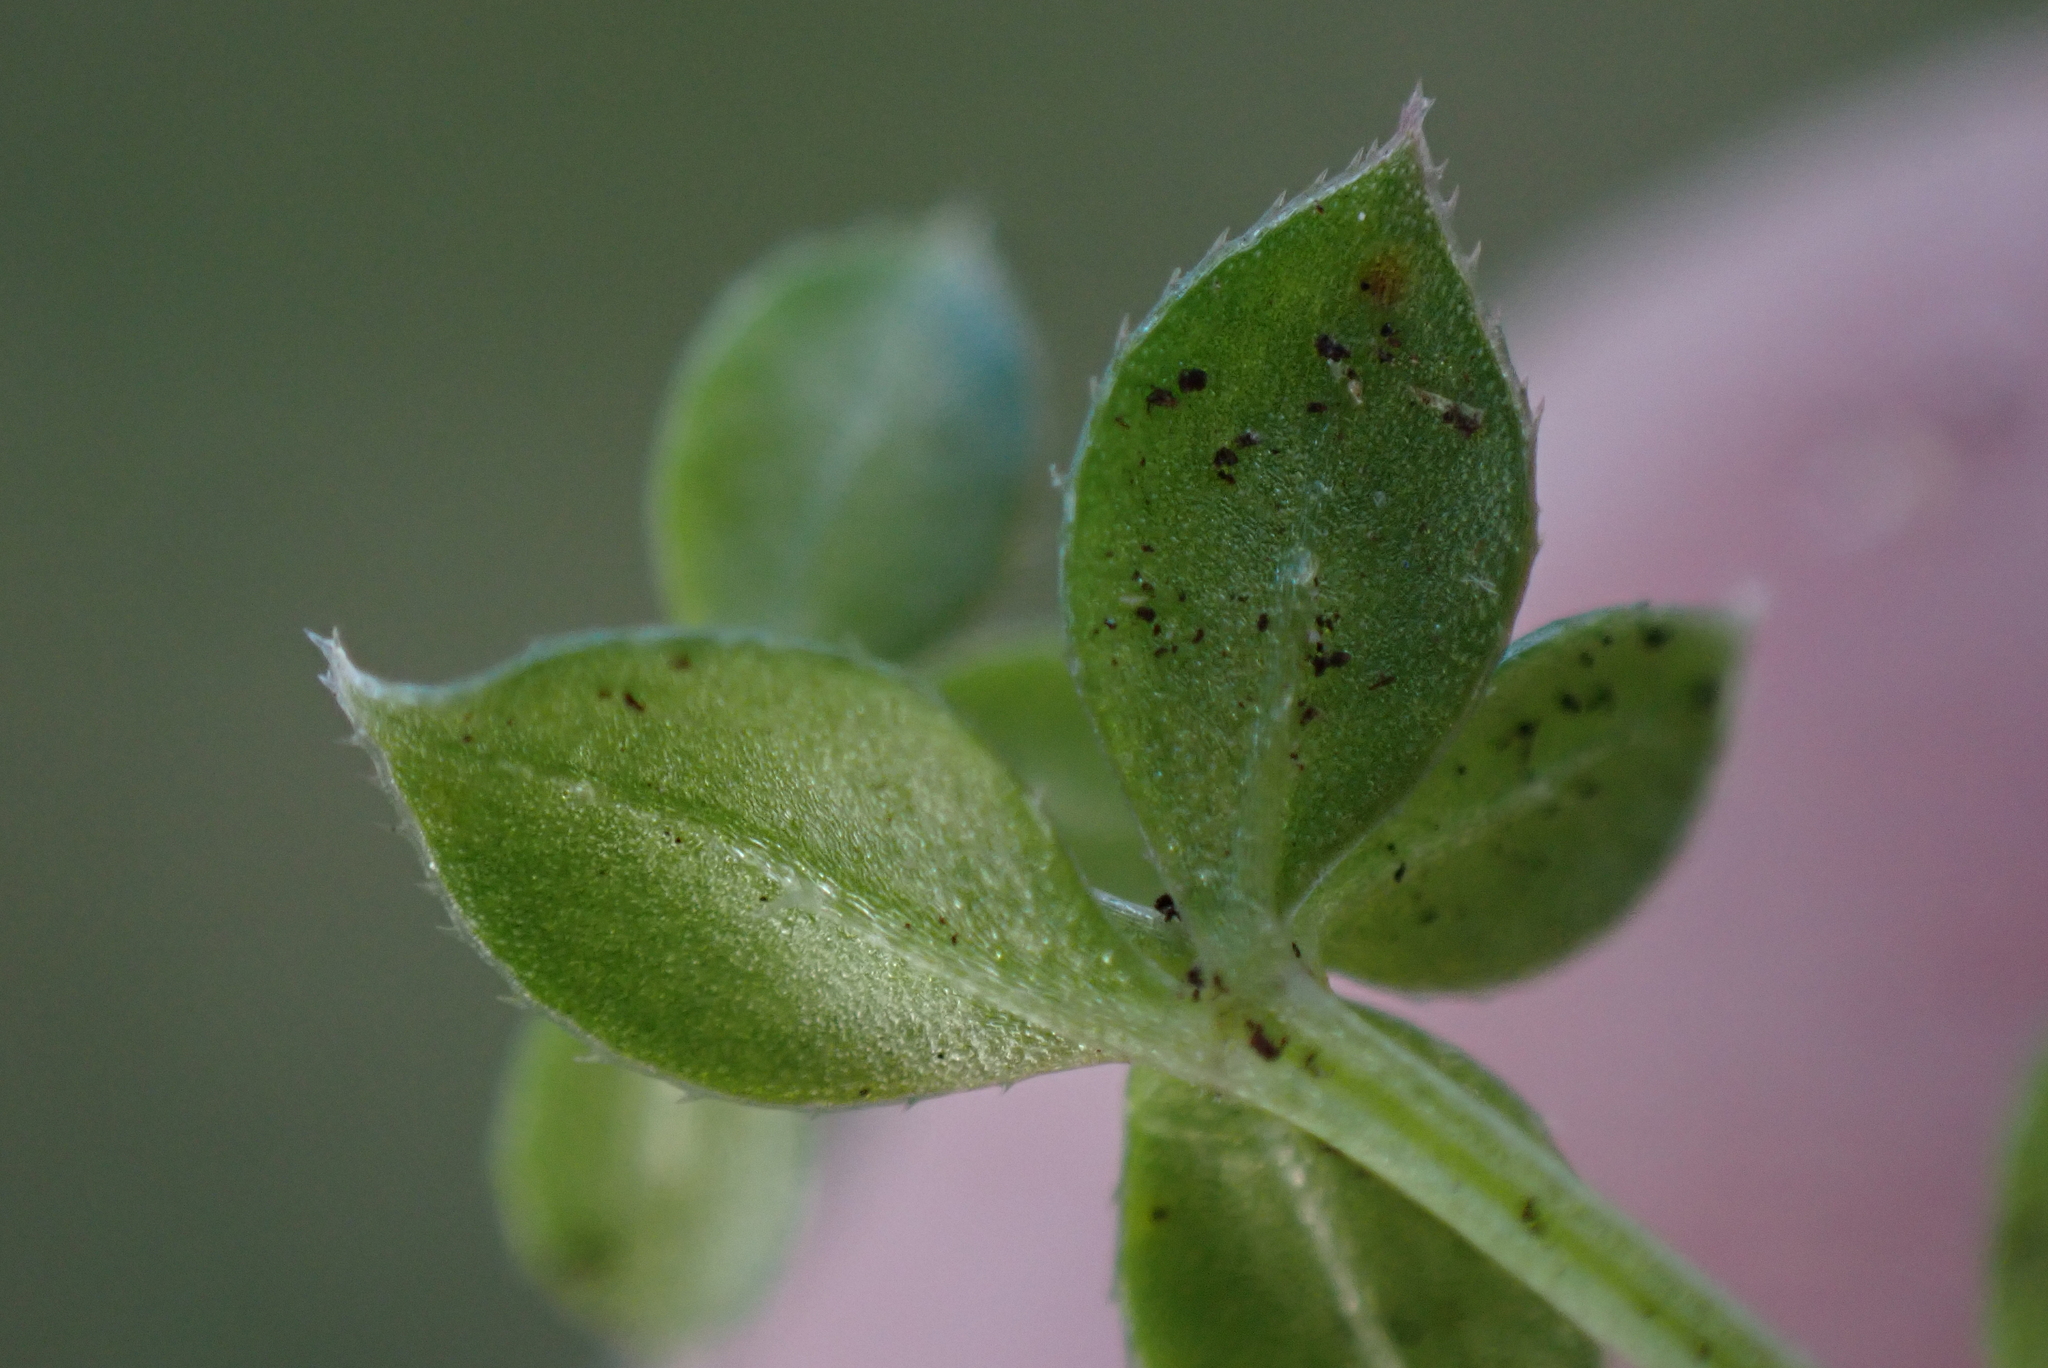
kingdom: Plantae
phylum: Tracheophyta
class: Magnoliopsida
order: Gentianales
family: Rubiaceae
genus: Galium
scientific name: Galium saxatile
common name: Heath bedstraw
